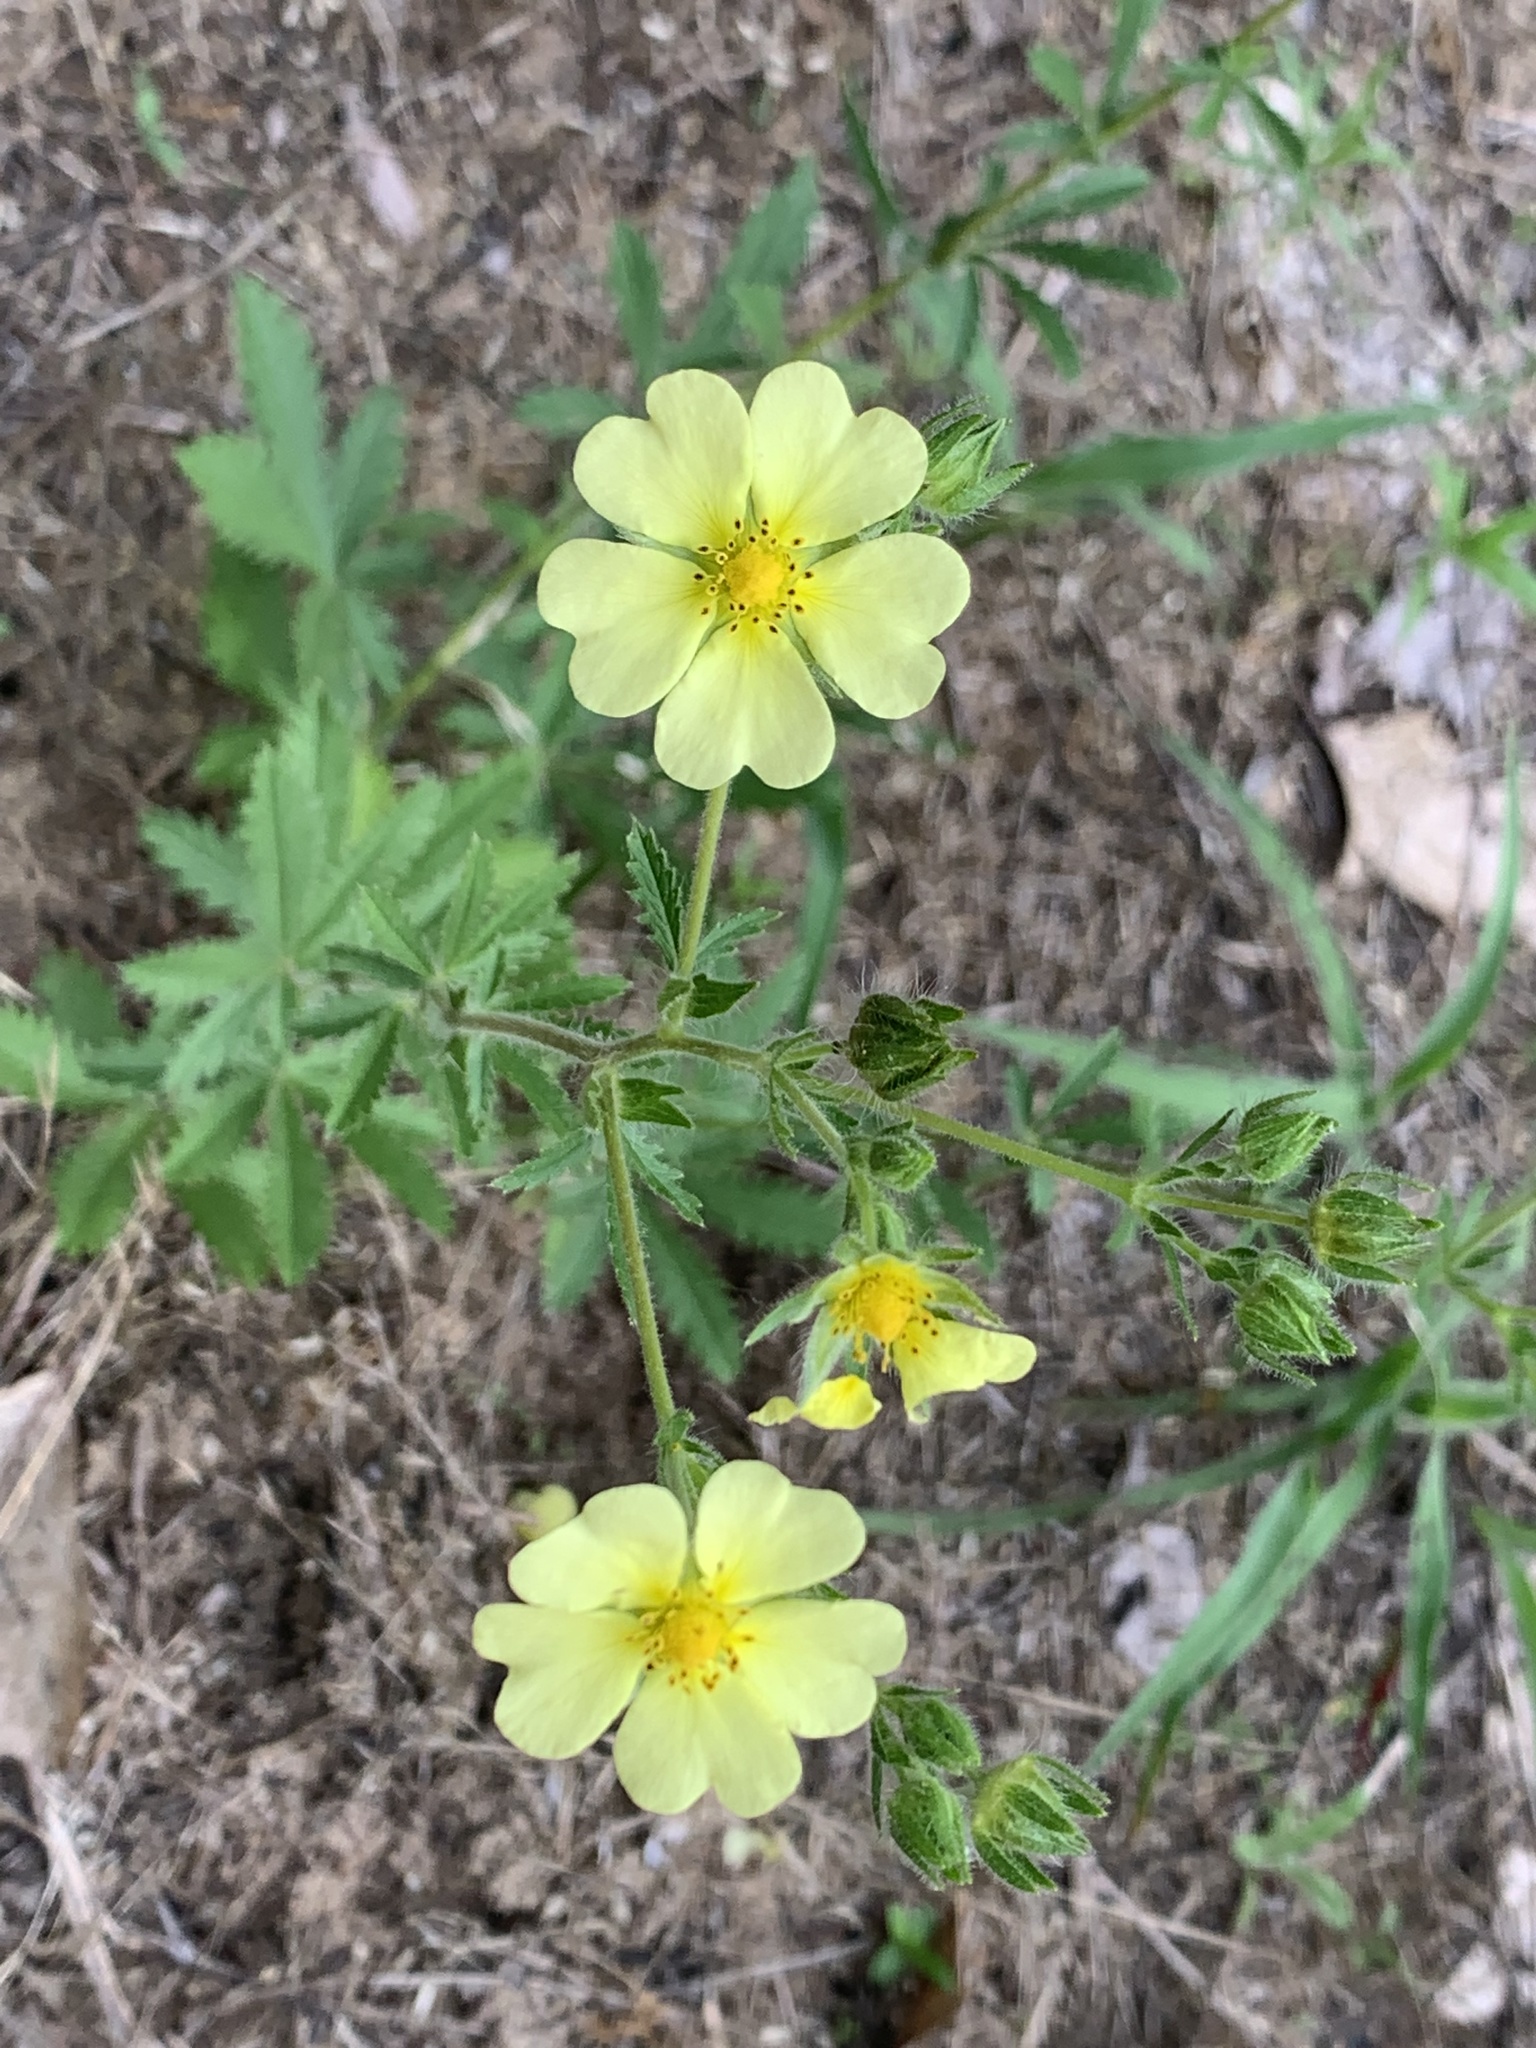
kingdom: Plantae
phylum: Tracheophyta
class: Magnoliopsida
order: Rosales
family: Rosaceae
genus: Potentilla
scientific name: Potentilla recta
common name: Sulphur cinquefoil
